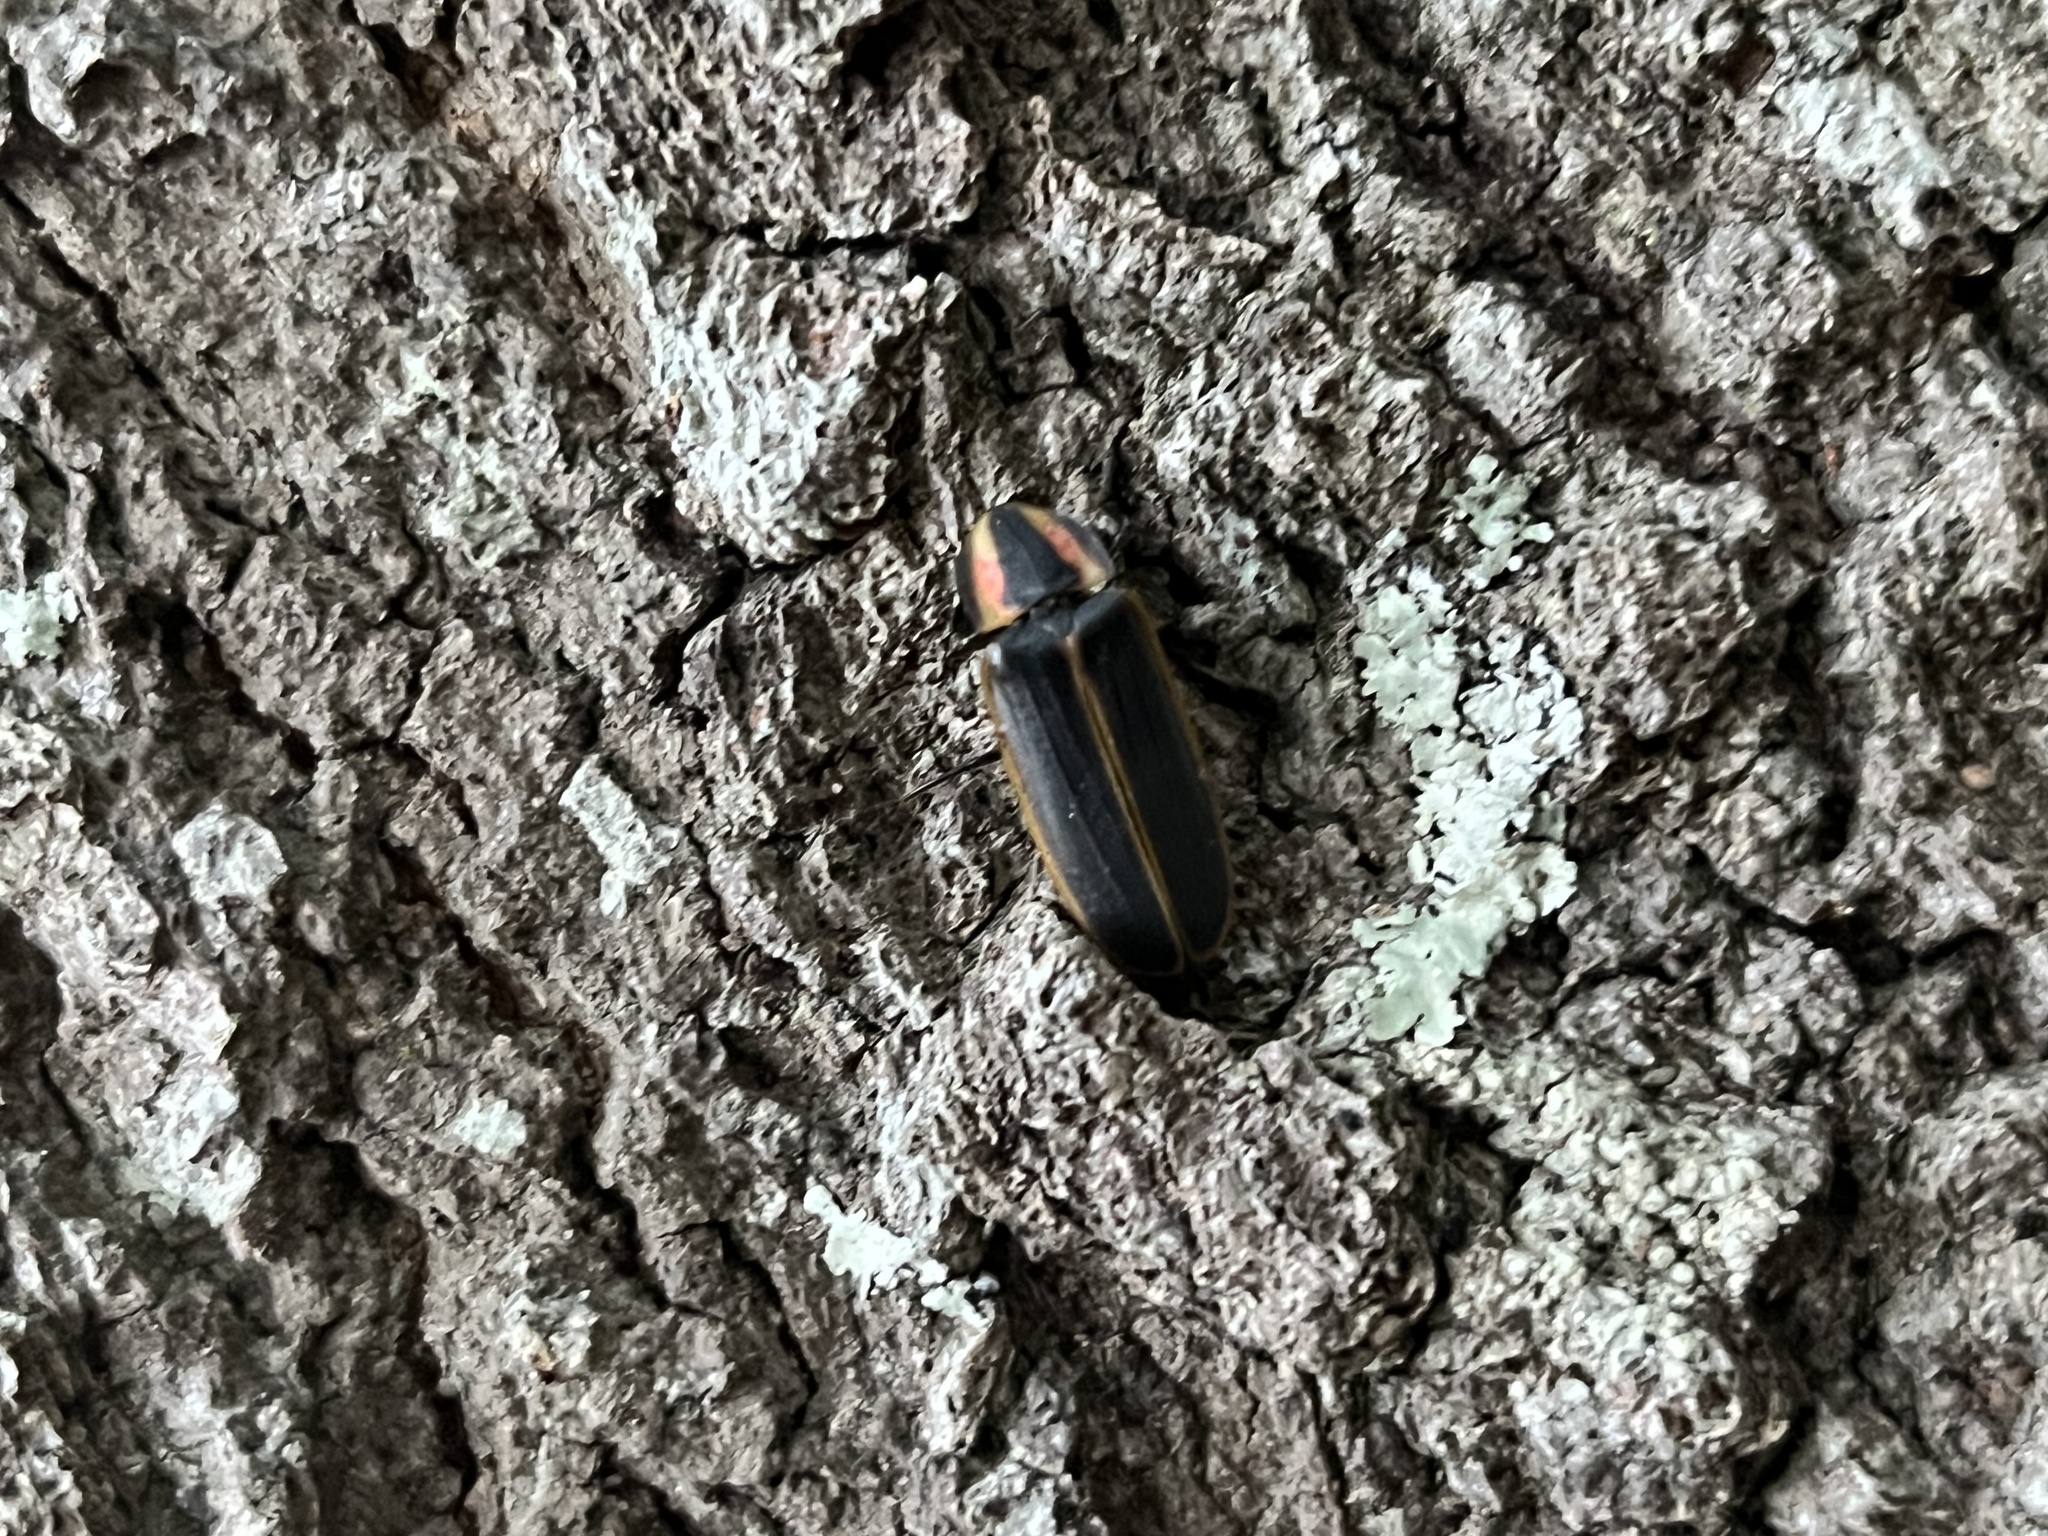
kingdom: Animalia
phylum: Arthropoda
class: Insecta
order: Coleoptera
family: Lampyridae
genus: Pyractomena
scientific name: Pyractomena borealis
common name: Northern firefly
